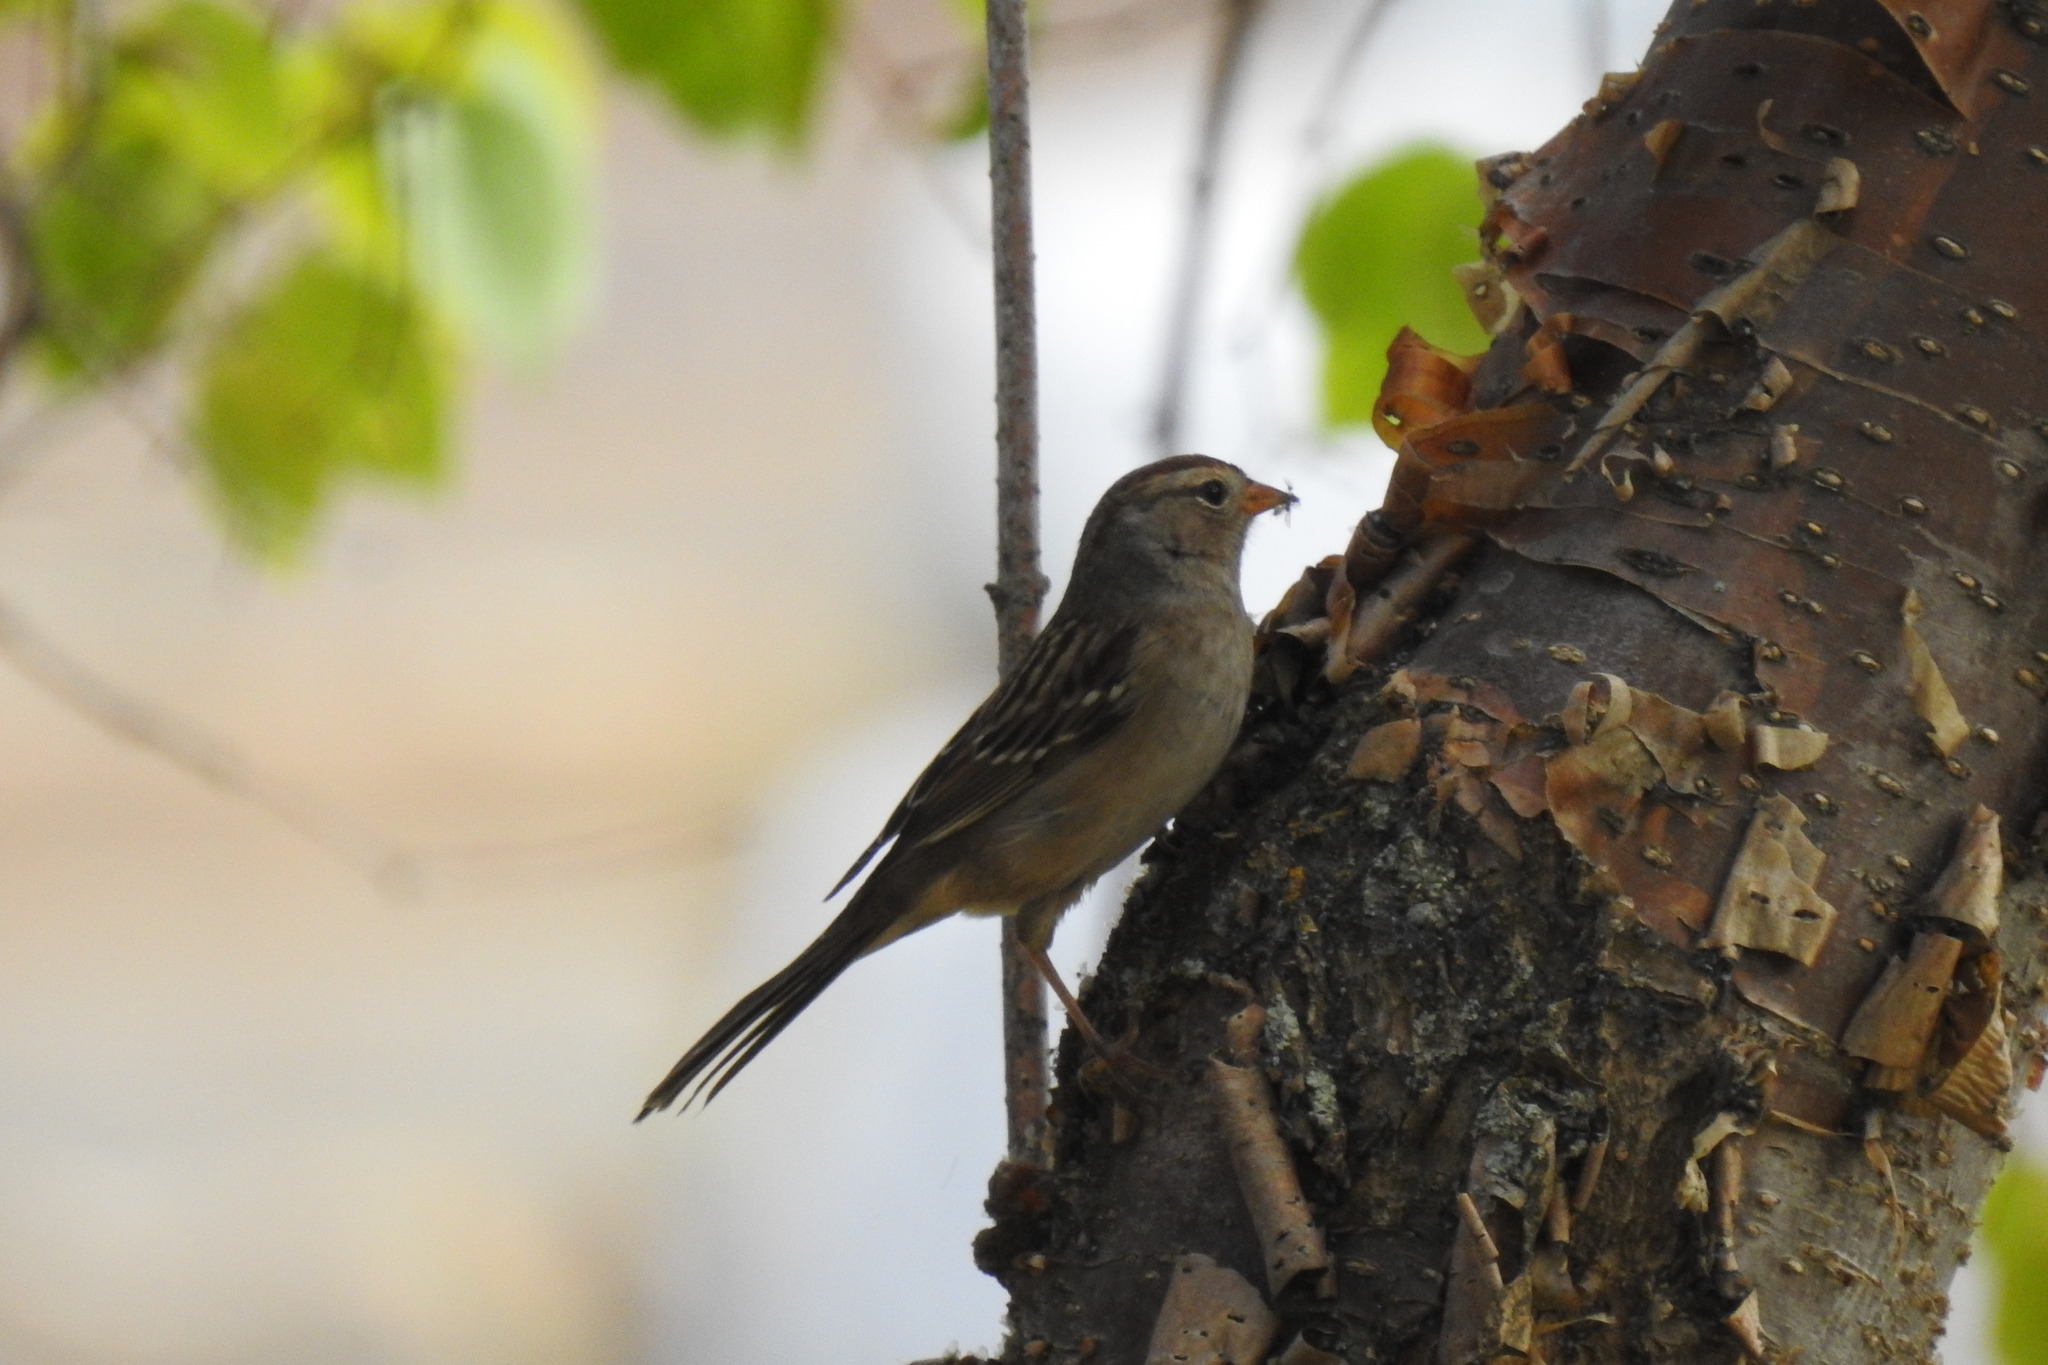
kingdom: Animalia
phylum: Chordata
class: Aves
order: Passeriformes
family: Passerellidae
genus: Zonotrichia
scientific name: Zonotrichia leucophrys
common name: White-crowned sparrow
